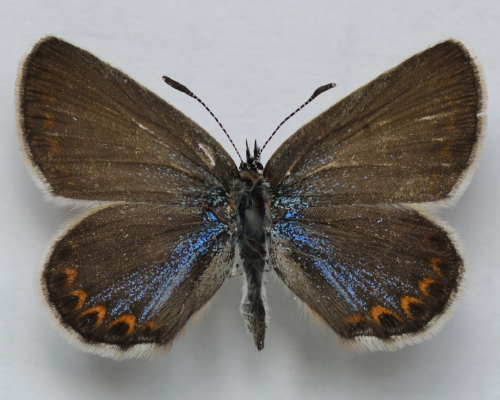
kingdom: Animalia
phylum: Arthropoda
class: Insecta
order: Lepidoptera
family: Lycaenidae
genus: Lycaeides
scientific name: Lycaeides idas
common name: Northern blue
